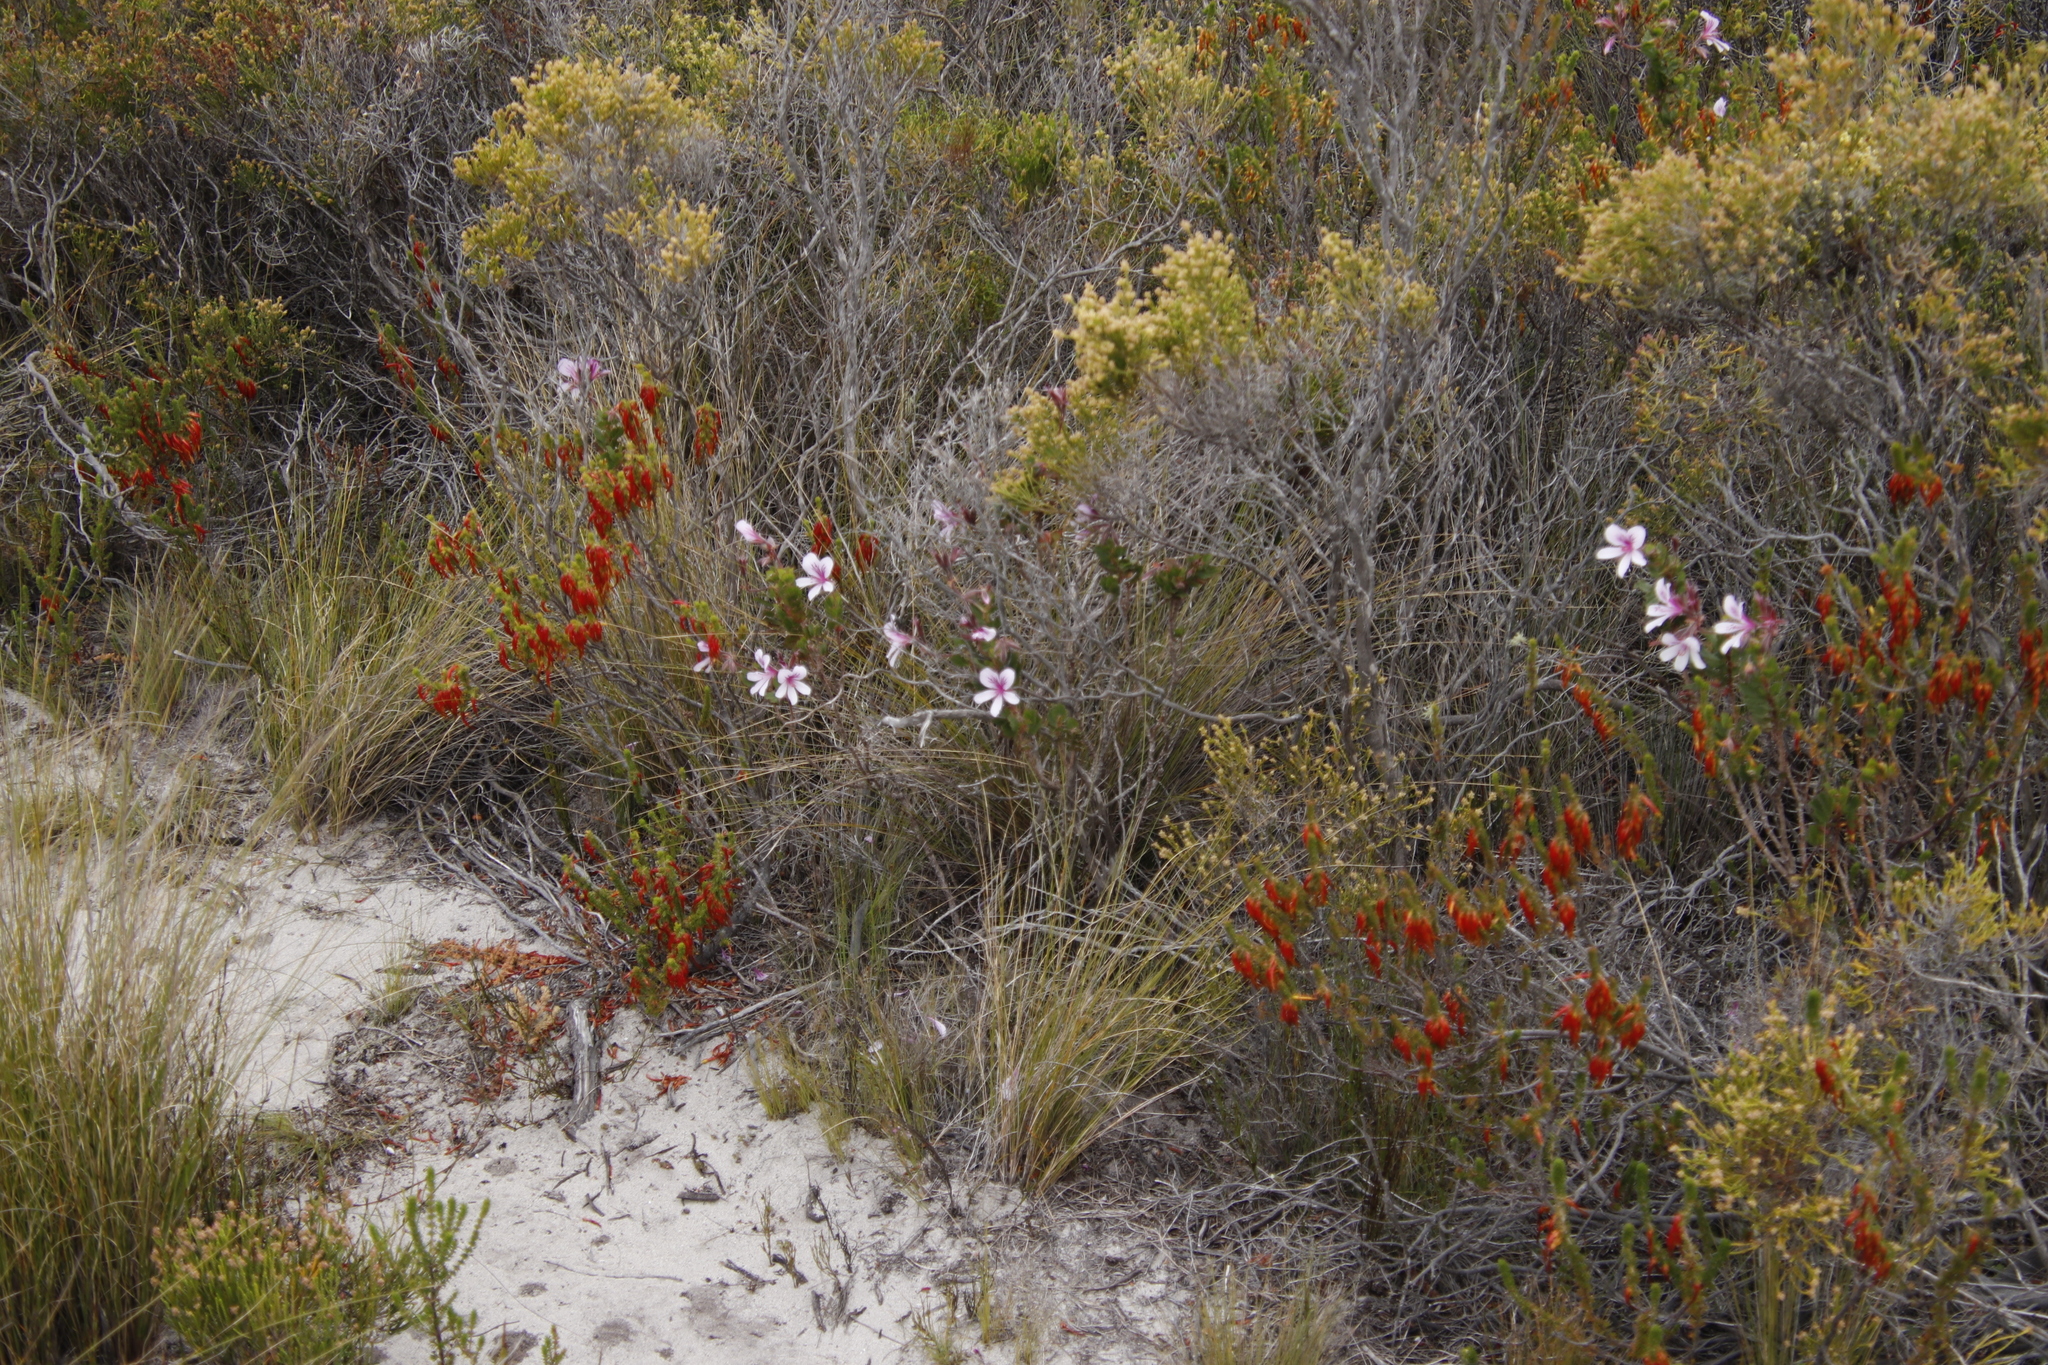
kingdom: Plantae
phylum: Tracheophyta
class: Magnoliopsida
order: Geraniales
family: Geraniaceae
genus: Pelargonium
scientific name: Pelargonium betulinum
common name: Birch-leaf pelargonium
